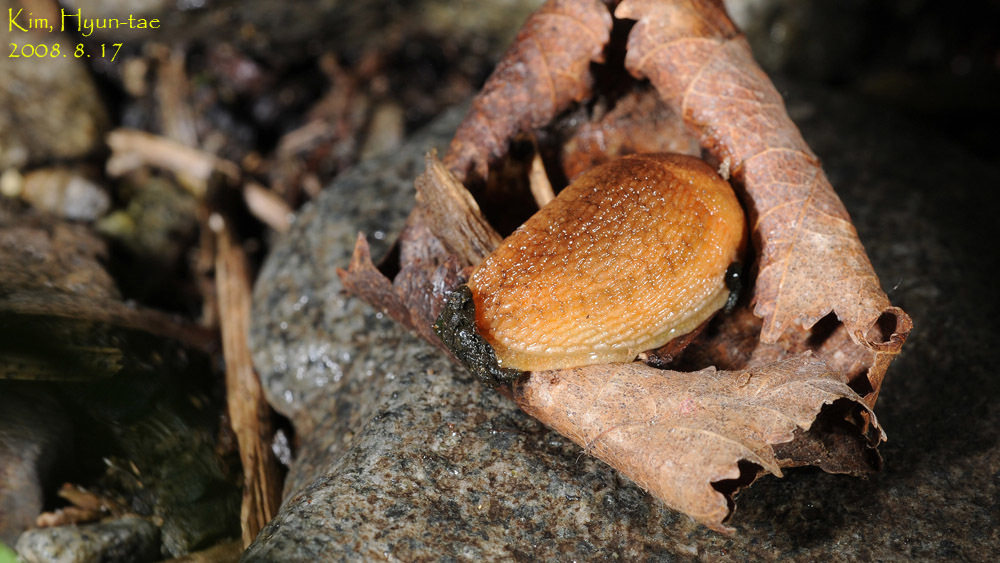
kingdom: Animalia
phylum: Mollusca
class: Gastropoda
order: Stylommatophora
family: Arionidae
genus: Arion
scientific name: Arion fuscus
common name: Northern dusky slug
